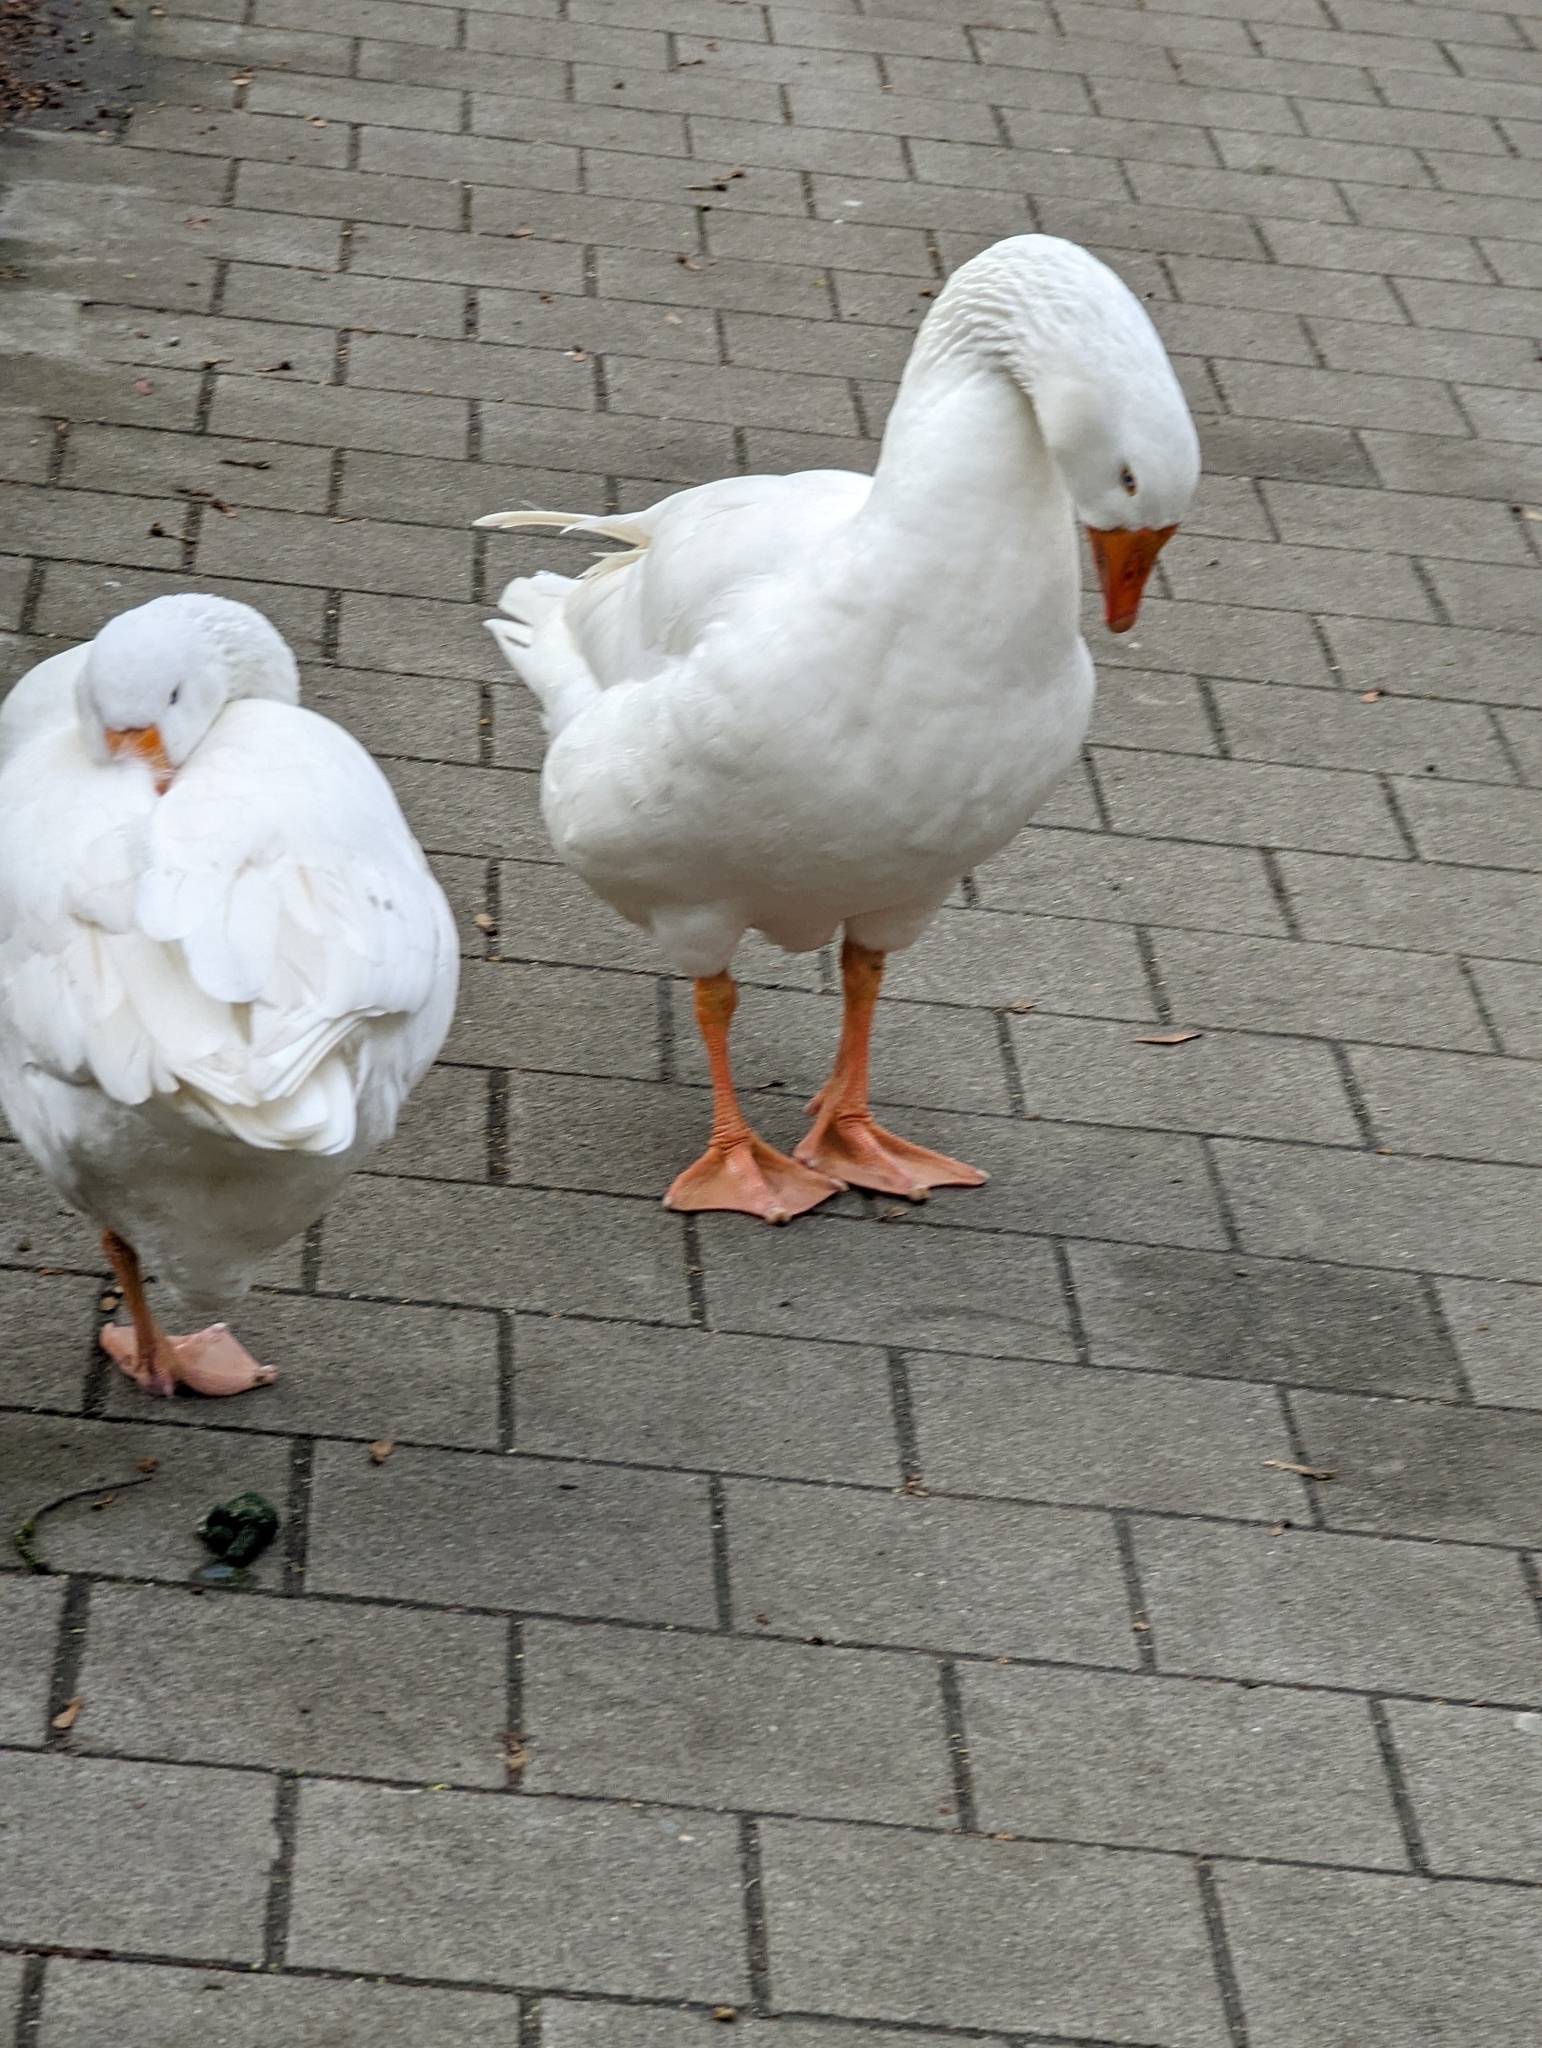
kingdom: Animalia
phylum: Chordata
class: Aves
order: Anseriformes
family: Anatidae
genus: Anser
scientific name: Anser anser
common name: Greylag goose
